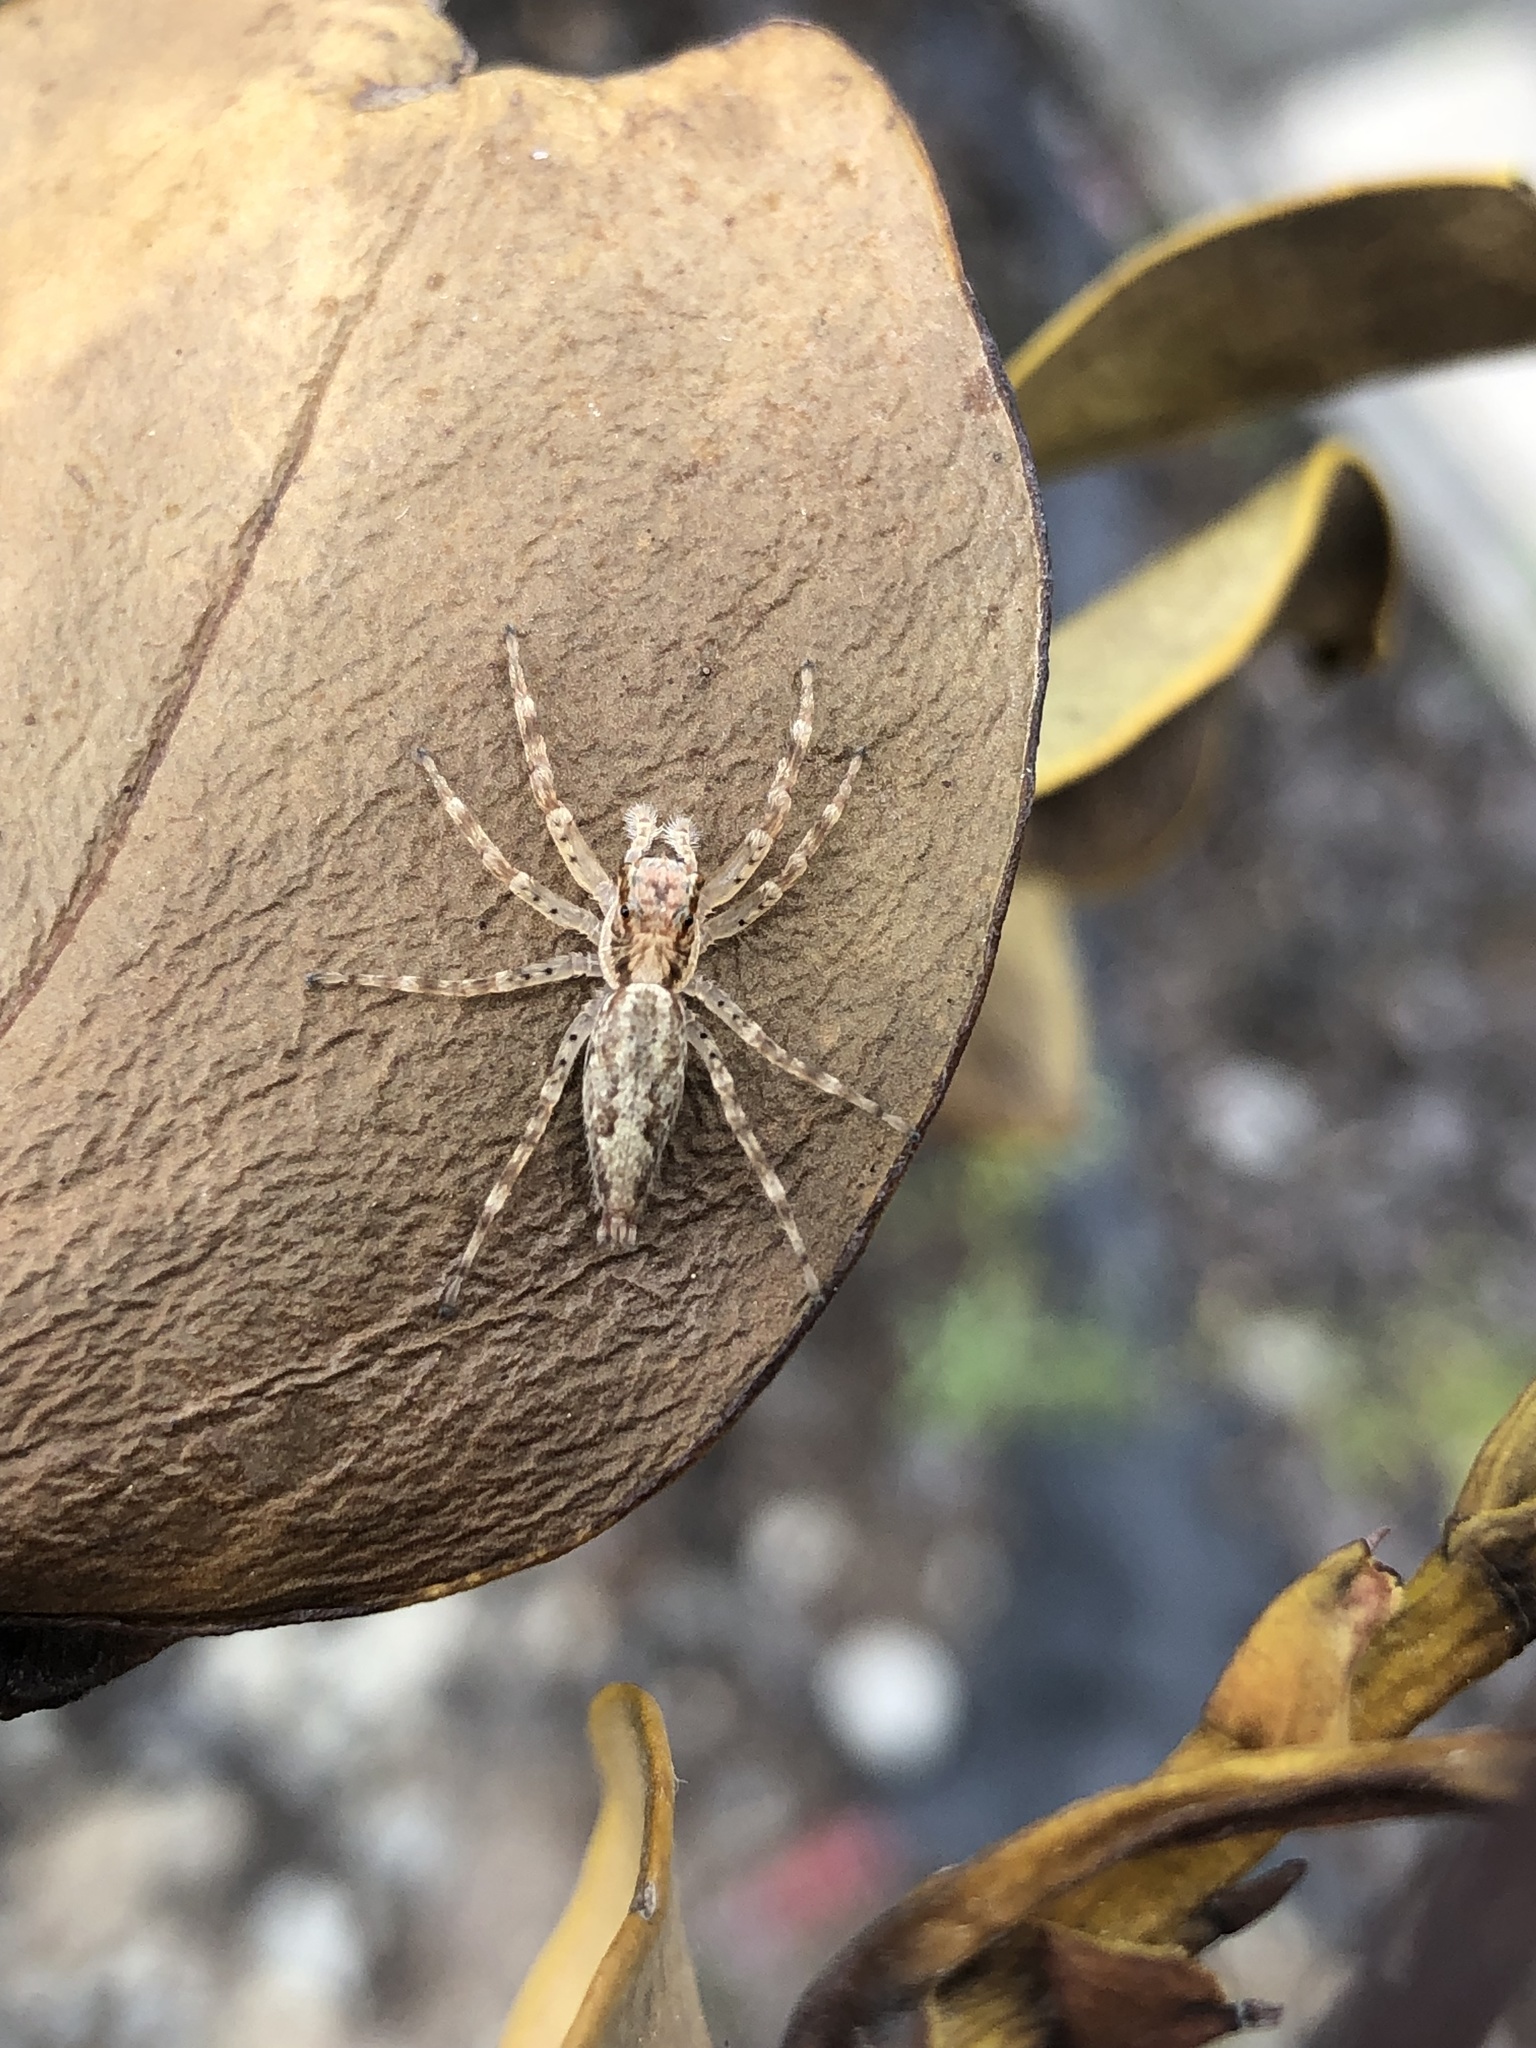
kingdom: Animalia
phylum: Arthropoda
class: Arachnida
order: Araneae
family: Salticidae
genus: Helpis
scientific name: Helpis minitabunda
